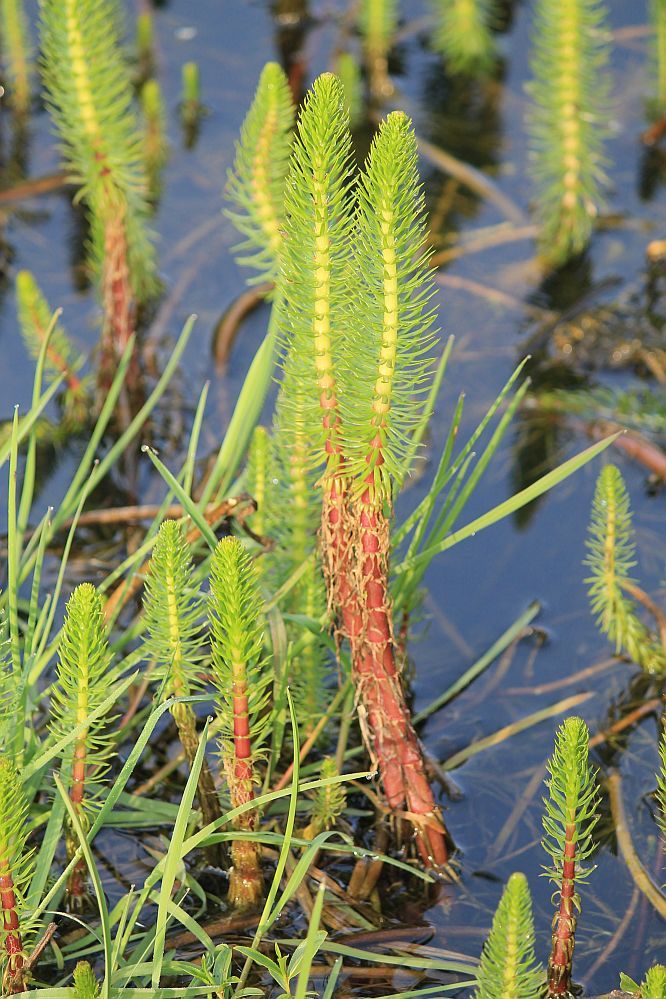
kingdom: Plantae
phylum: Tracheophyta
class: Magnoliopsida
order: Lamiales
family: Plantaginaceae
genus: Hippuris
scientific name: Hippuris vulgaris
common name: Mare's-tail
